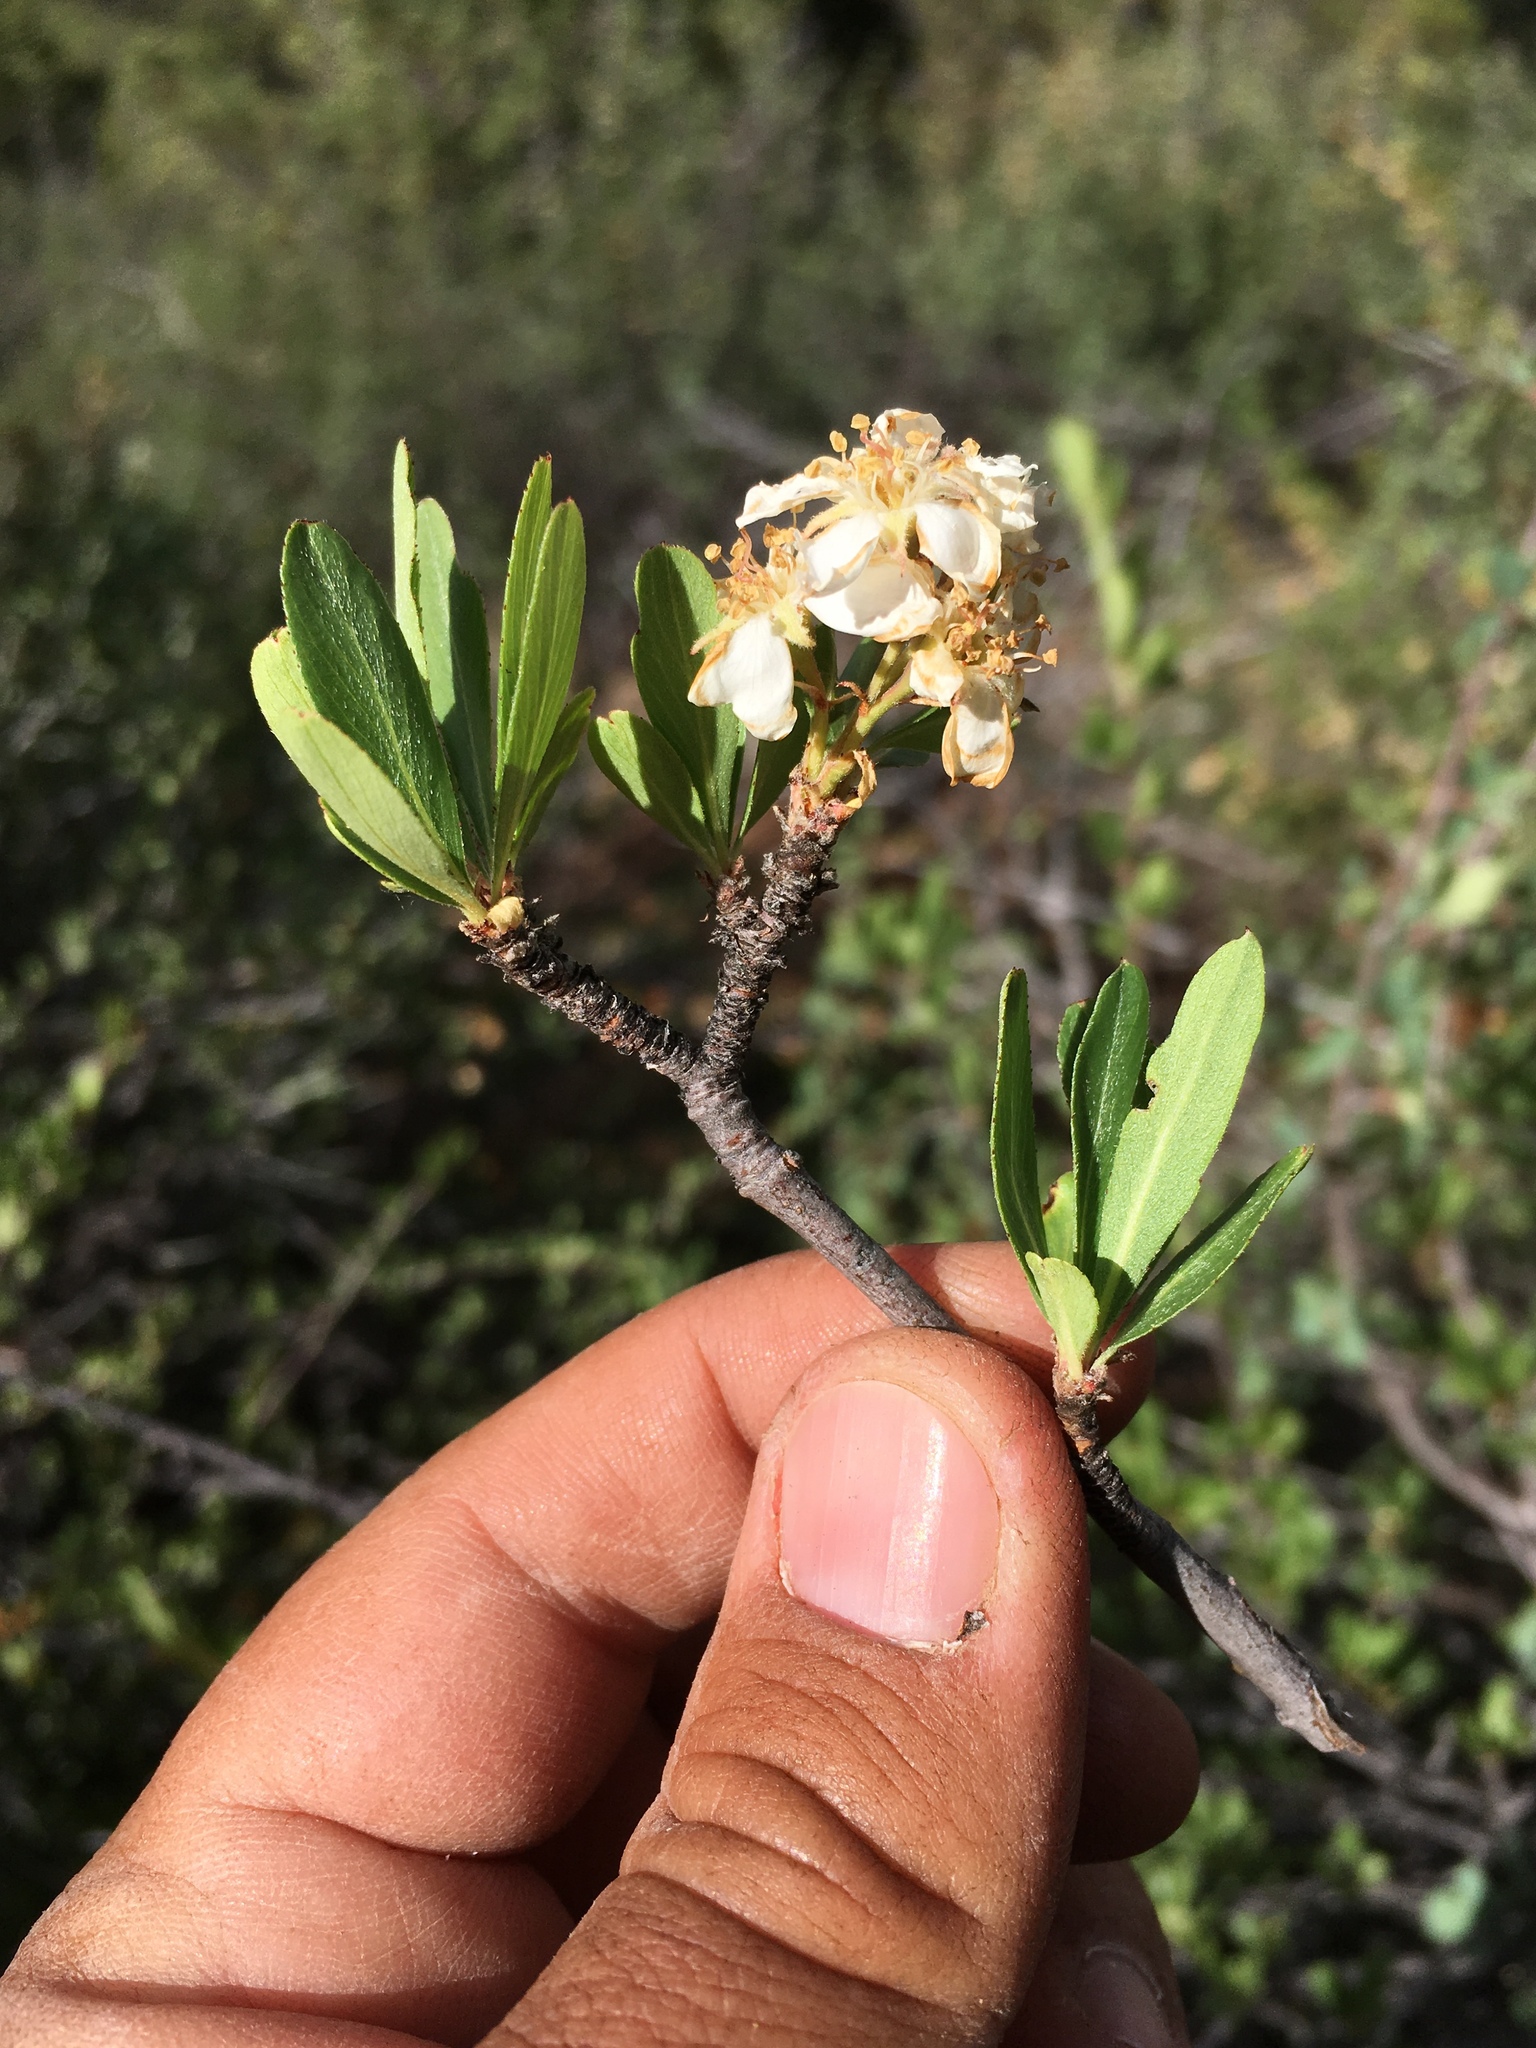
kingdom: Plantae
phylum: Tracheophyta
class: Magnoliopsida
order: Rosales
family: Rosaceae
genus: Amelanchier
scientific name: Amelanchier ramosissima
